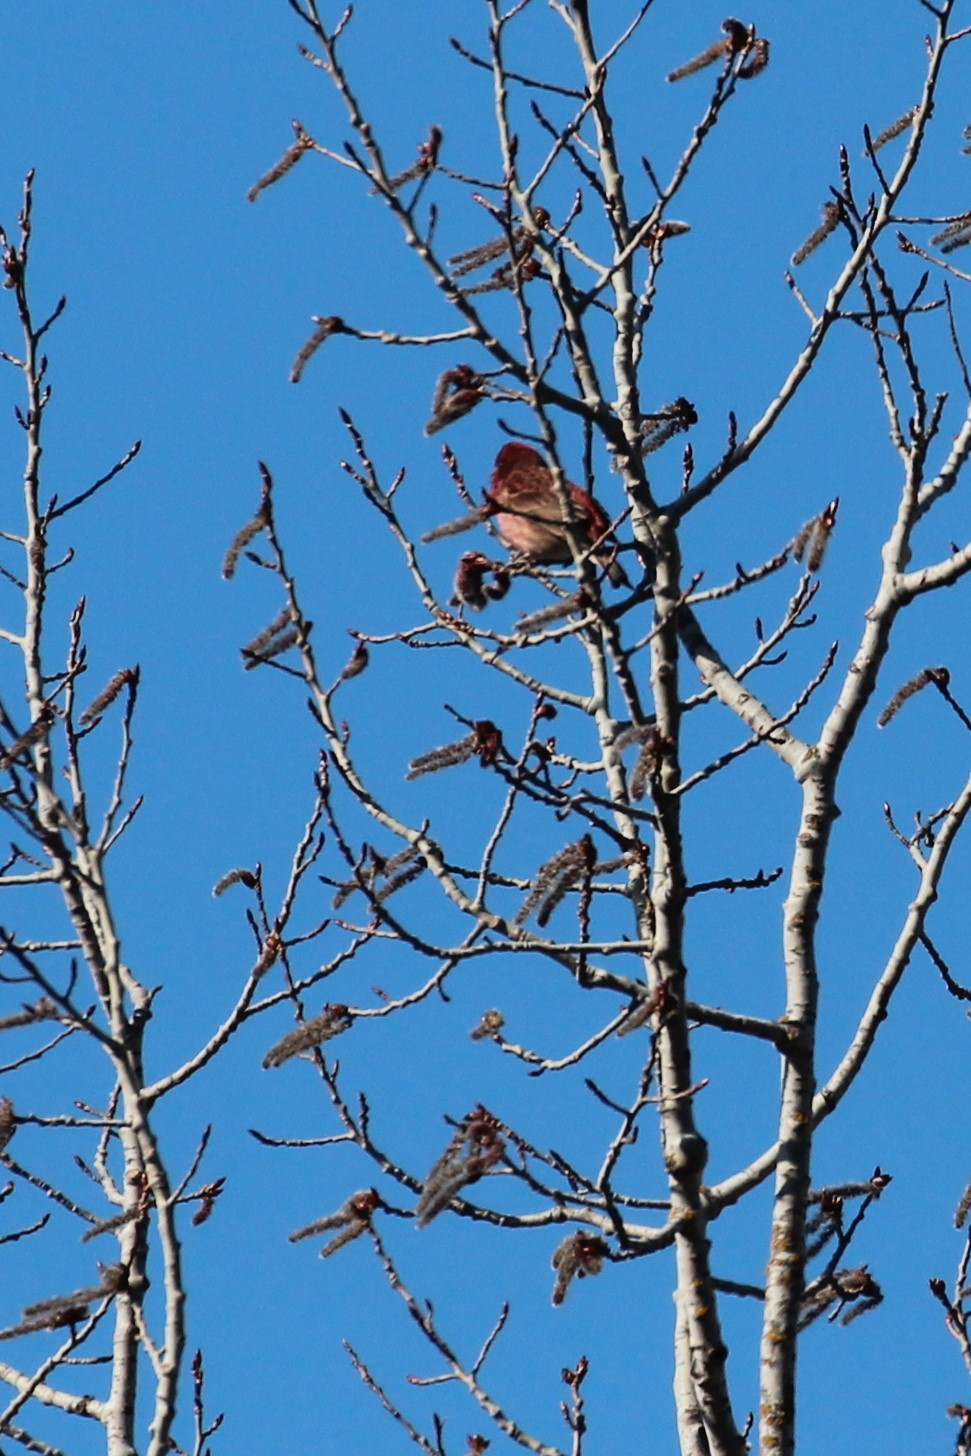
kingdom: Animalia
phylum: Chordata
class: Aves
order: Passeriformes
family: Fringillidae
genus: Haemorhous
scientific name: Haemorhous purpureus
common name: Purple finch
